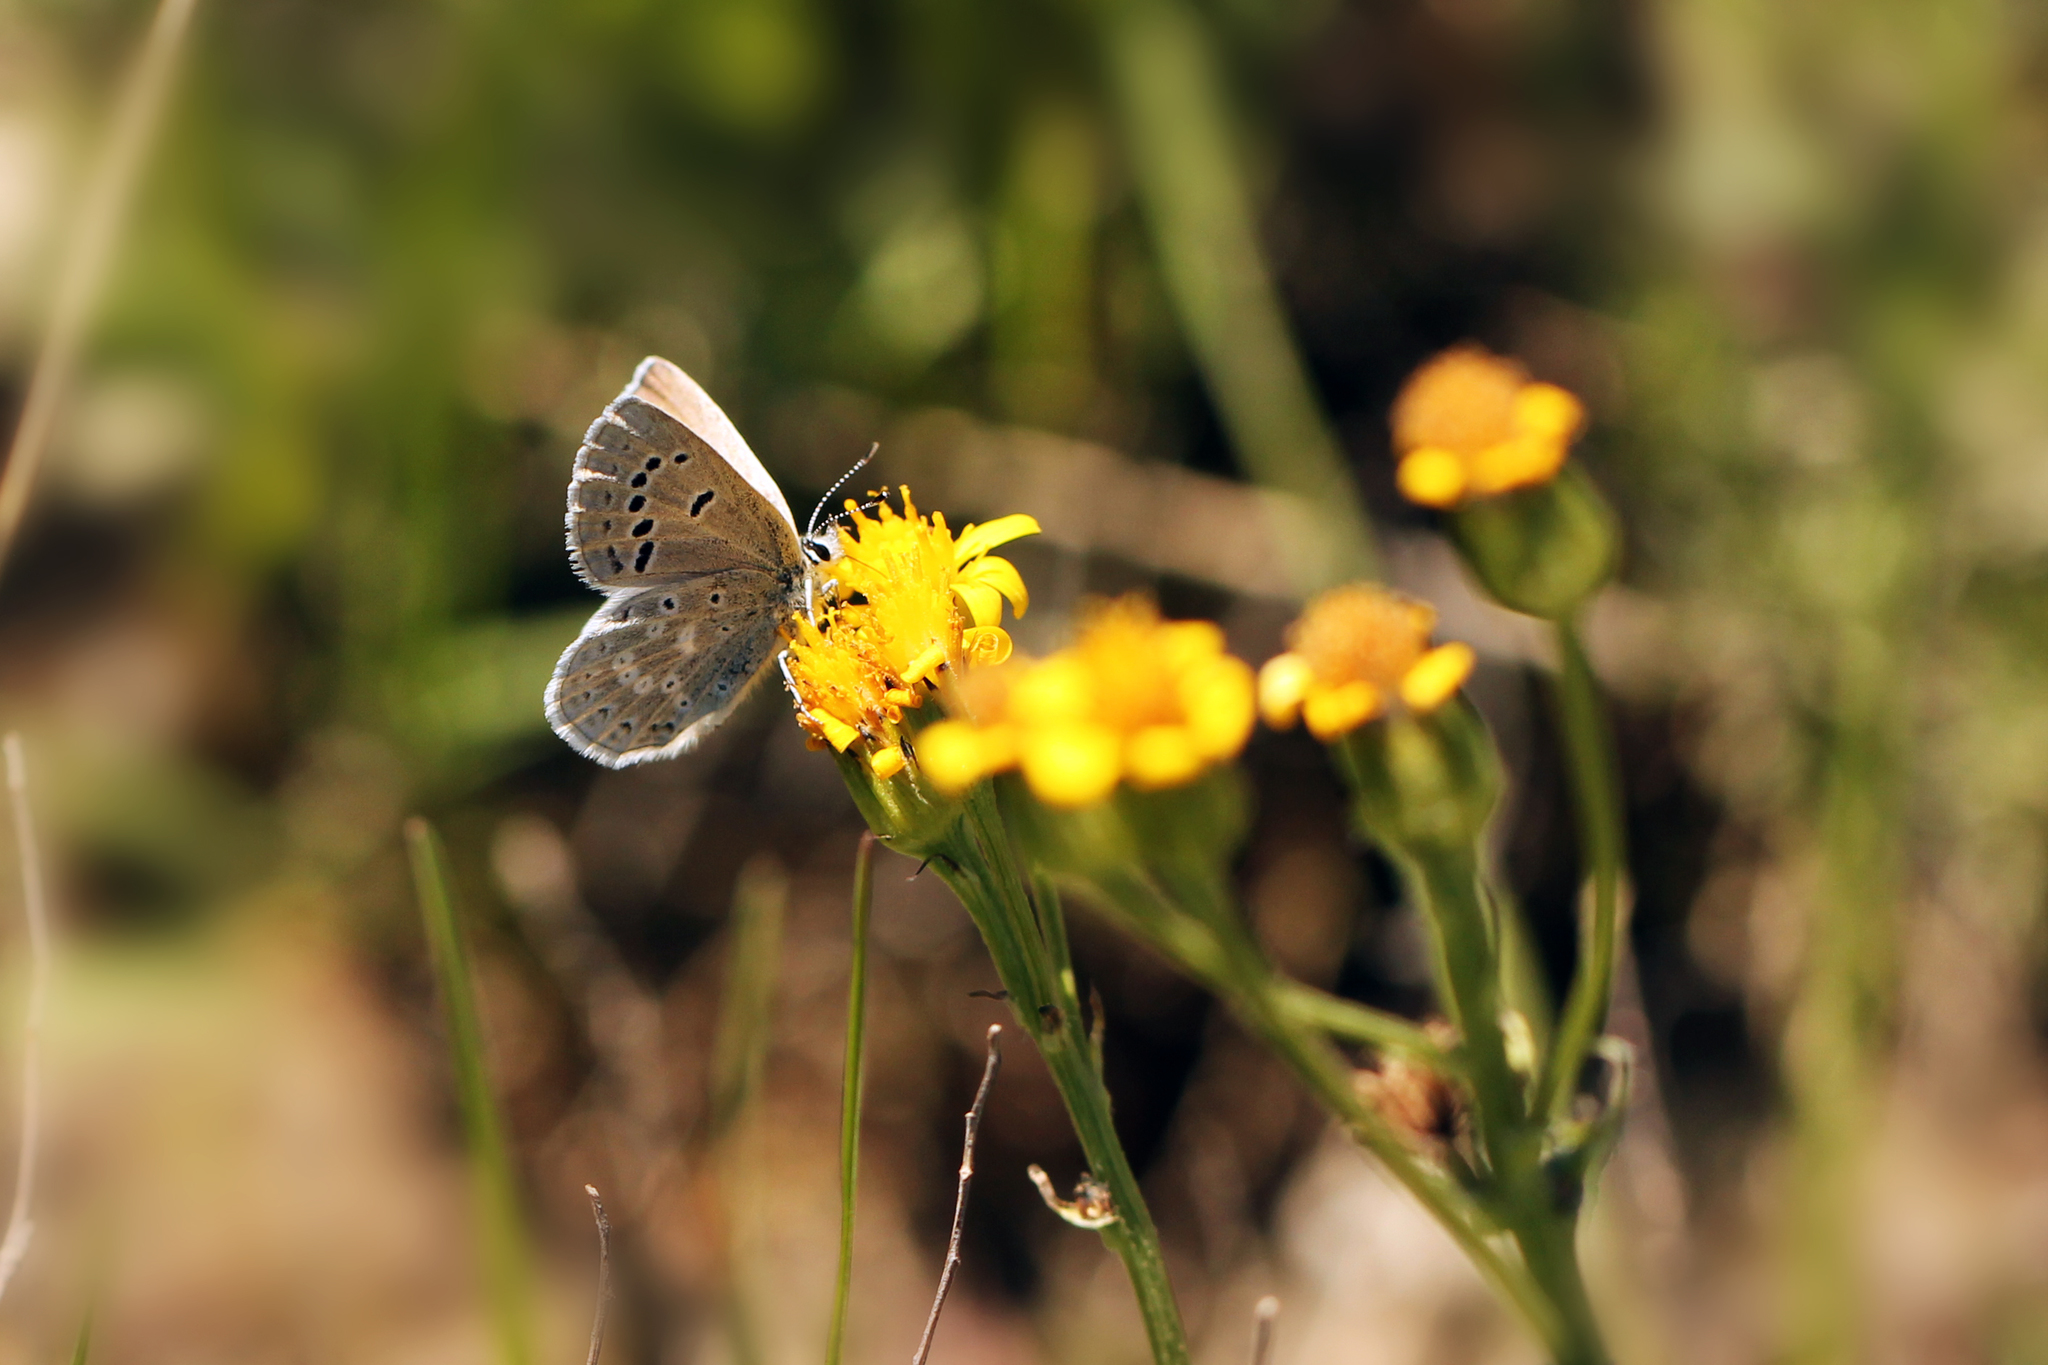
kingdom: Animalia
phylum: Arthropoda
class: Insecta
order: Lepidoptera
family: Lycaenidae
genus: Icaricia
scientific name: Icaricia icarioides
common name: Boisduval's blue
